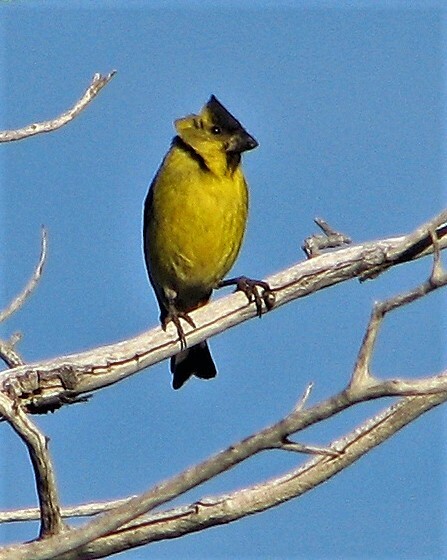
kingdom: Animalia
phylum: Chordata
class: Aves
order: Passeriformes
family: Fringillidae
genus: Spinus
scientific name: Spinus barbatus
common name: Black-chinned siskin
